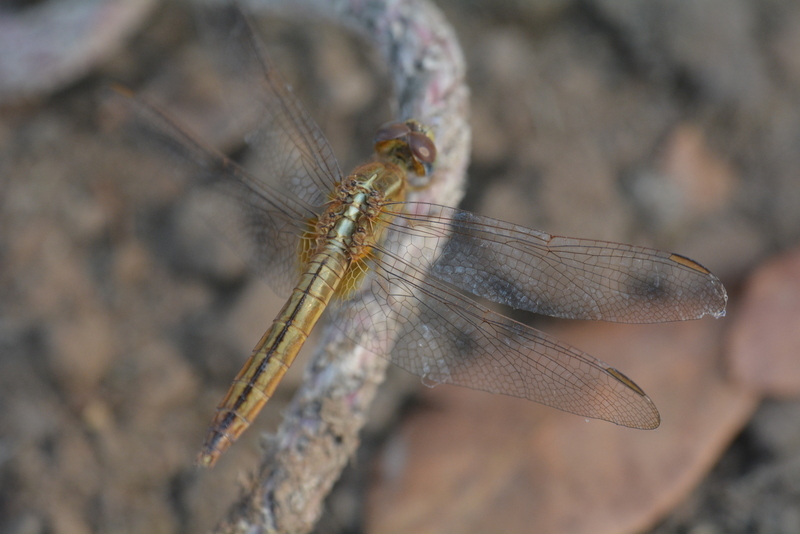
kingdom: Animalia
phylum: Arthropoda
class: Insecta
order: Odonata
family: Libellulidae
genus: Crocothemis
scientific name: Crocothemis servilia
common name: Scarlet skimmer
